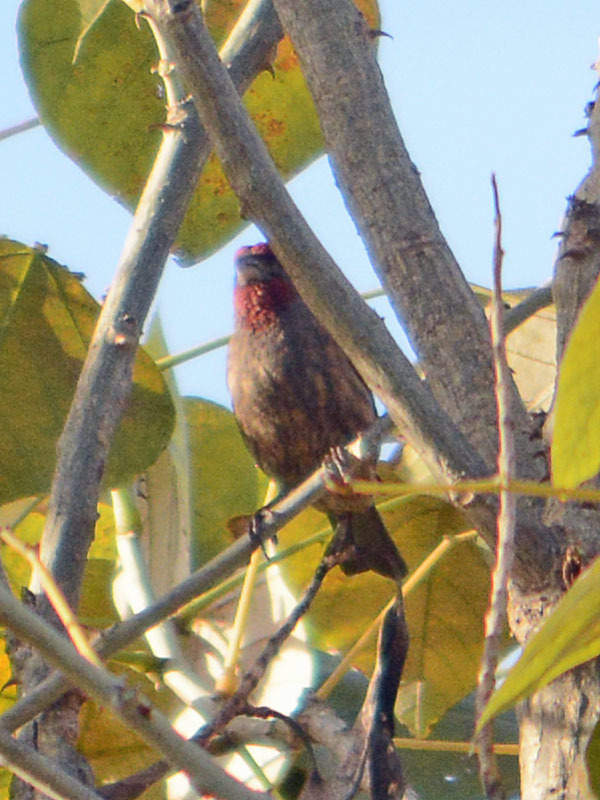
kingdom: Animalia
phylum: Chordata
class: Aves
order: Passeriformes
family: Fringillidae
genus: Haemorhous
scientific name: Haemorhous mexicanus
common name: House finch
